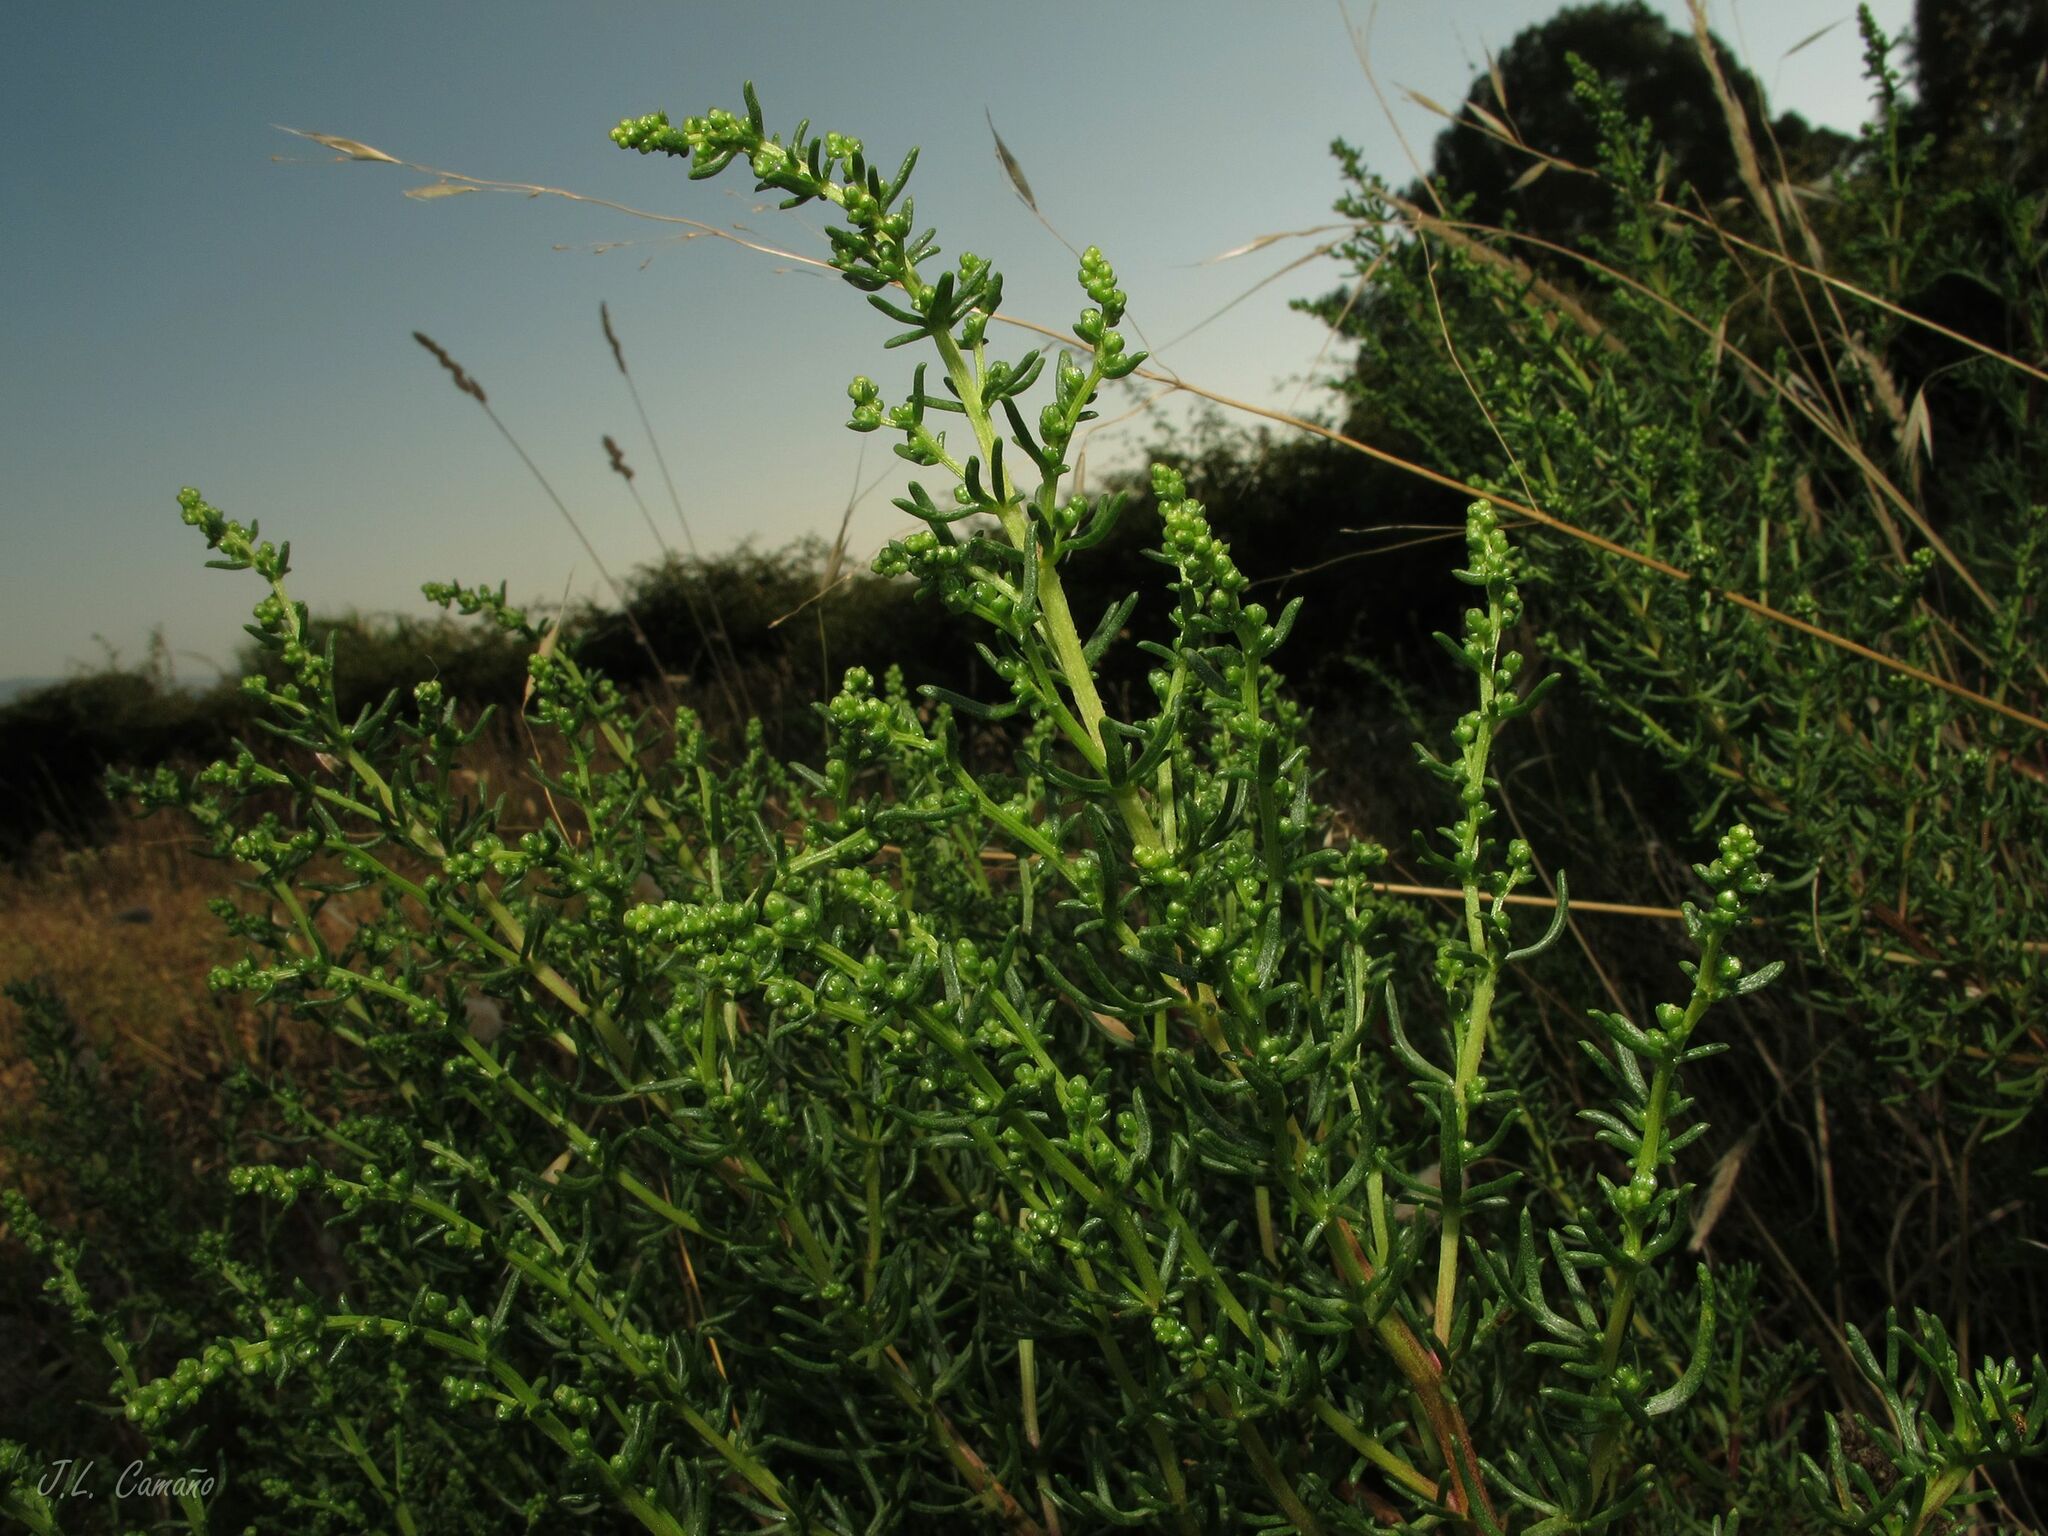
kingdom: Plantae
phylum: Tracheophyta
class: Magnoliopsida
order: Asterales
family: Asteraceae
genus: Artemisia
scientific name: Artemisia crithmifolia
